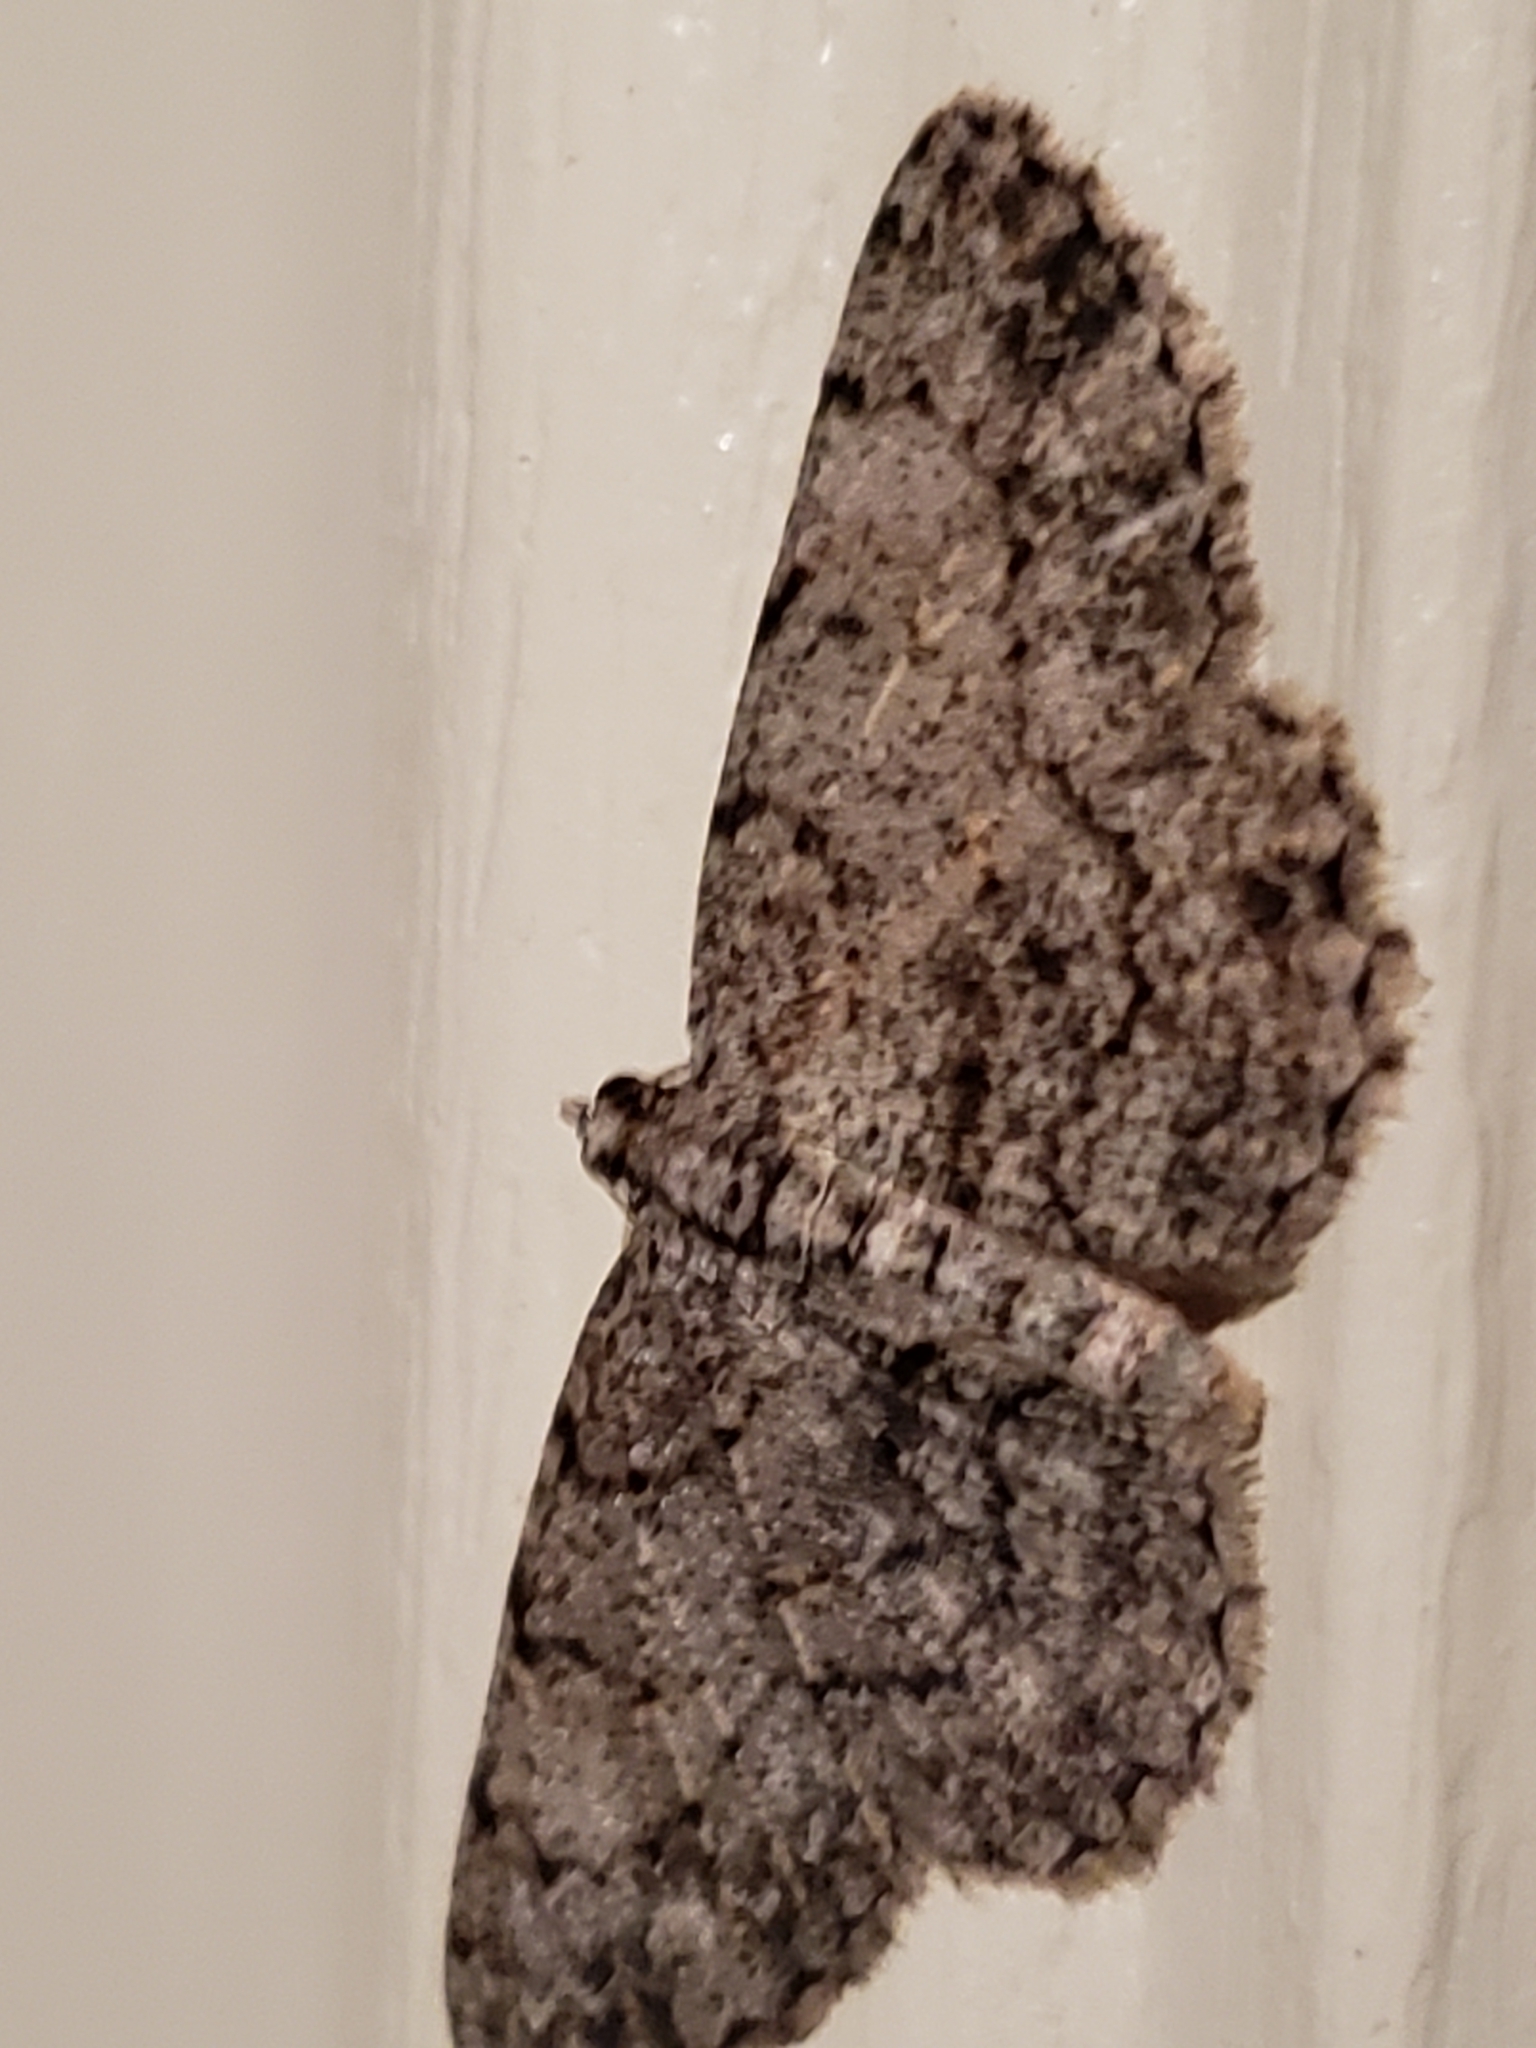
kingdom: Animalia
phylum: Arthropoda
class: Insecta
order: Lepidoptera
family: Geometridae
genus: Protoboarmia
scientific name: Protoboarmia porcelaria
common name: Porcelain gray
